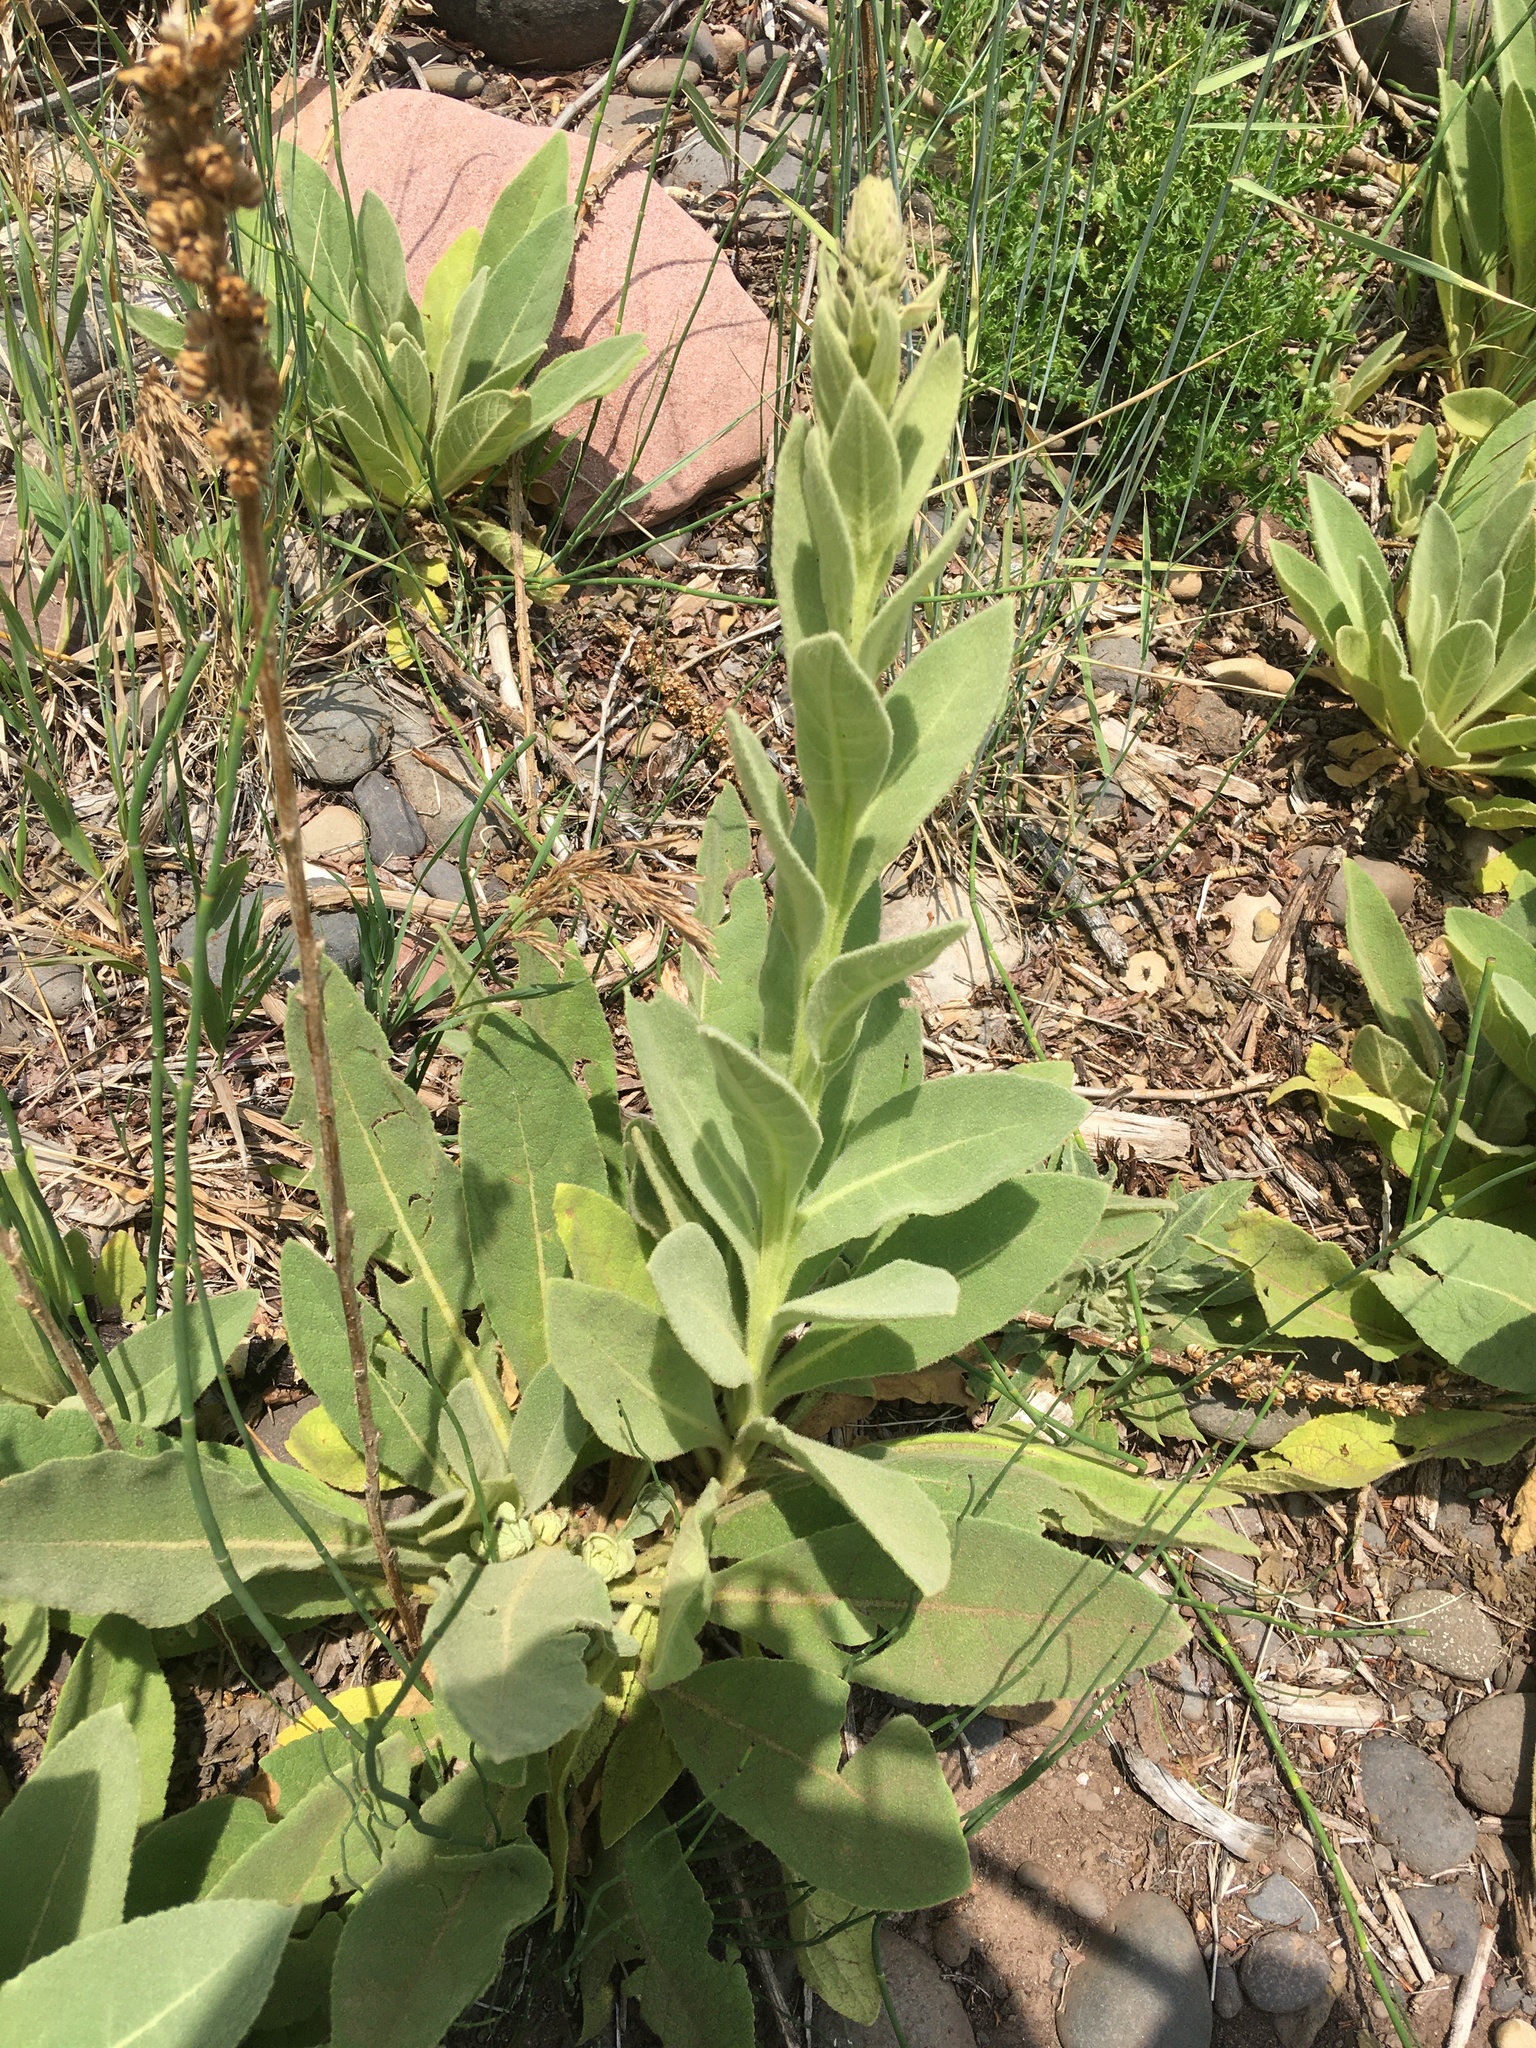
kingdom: Plantae
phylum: Tracheophyta
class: Magnoliopsida
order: Lamiales
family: Scrophulariaceae
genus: Verbascum
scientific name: Verbascum thapsus
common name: Common mullein
